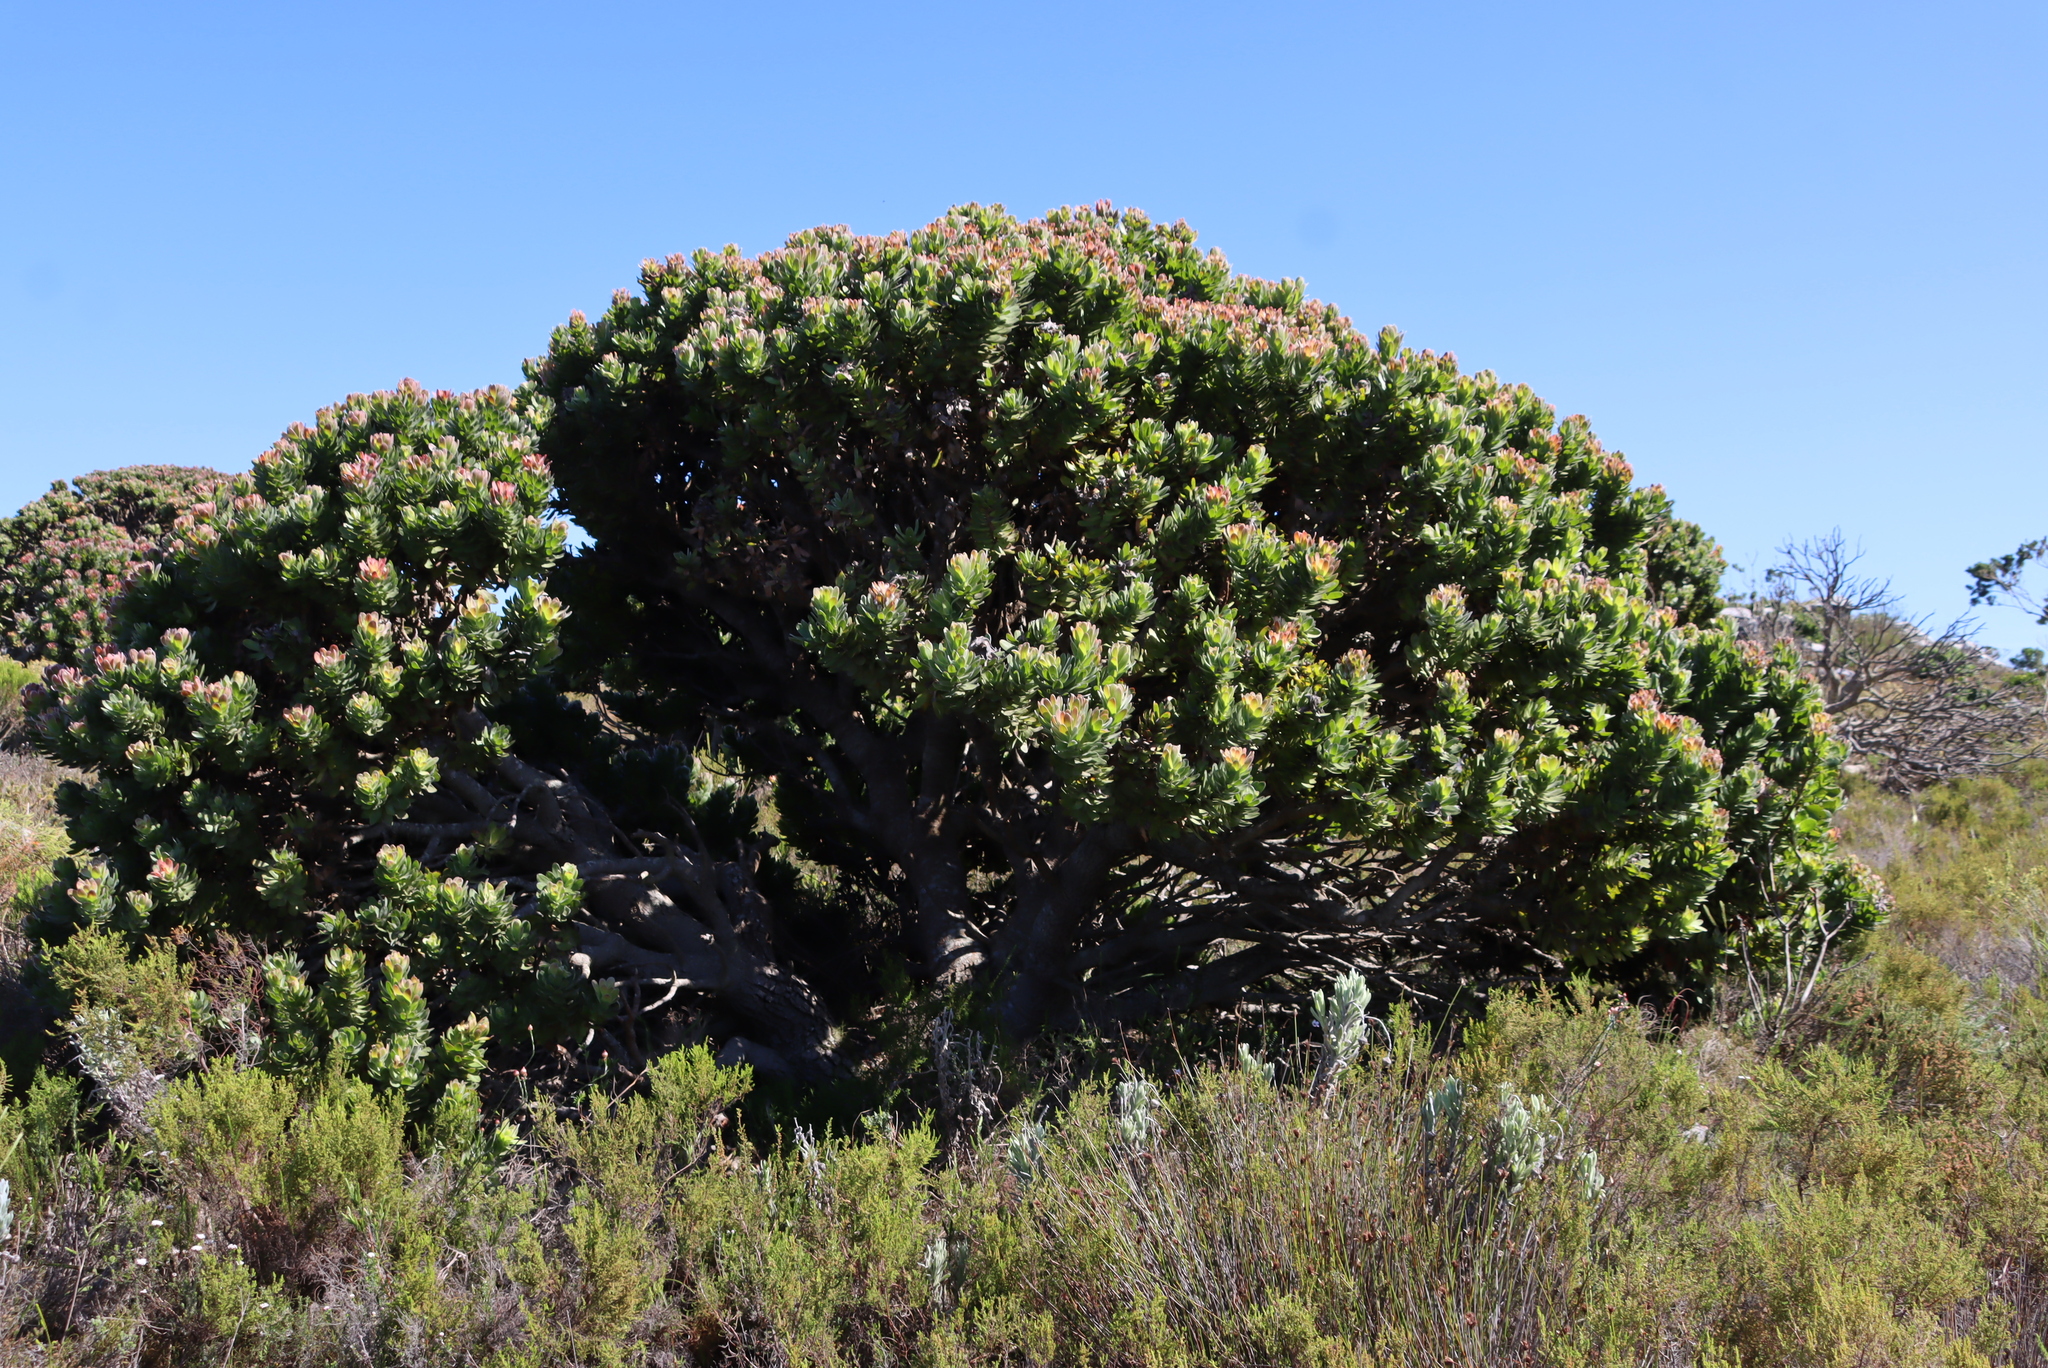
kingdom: Plantae
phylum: Tracheophyta
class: Magnoliopsida
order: Proteales
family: Proteaceae
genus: Mimetes
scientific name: Mimetes fimbriifolius
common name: Fringed bottlebrush
